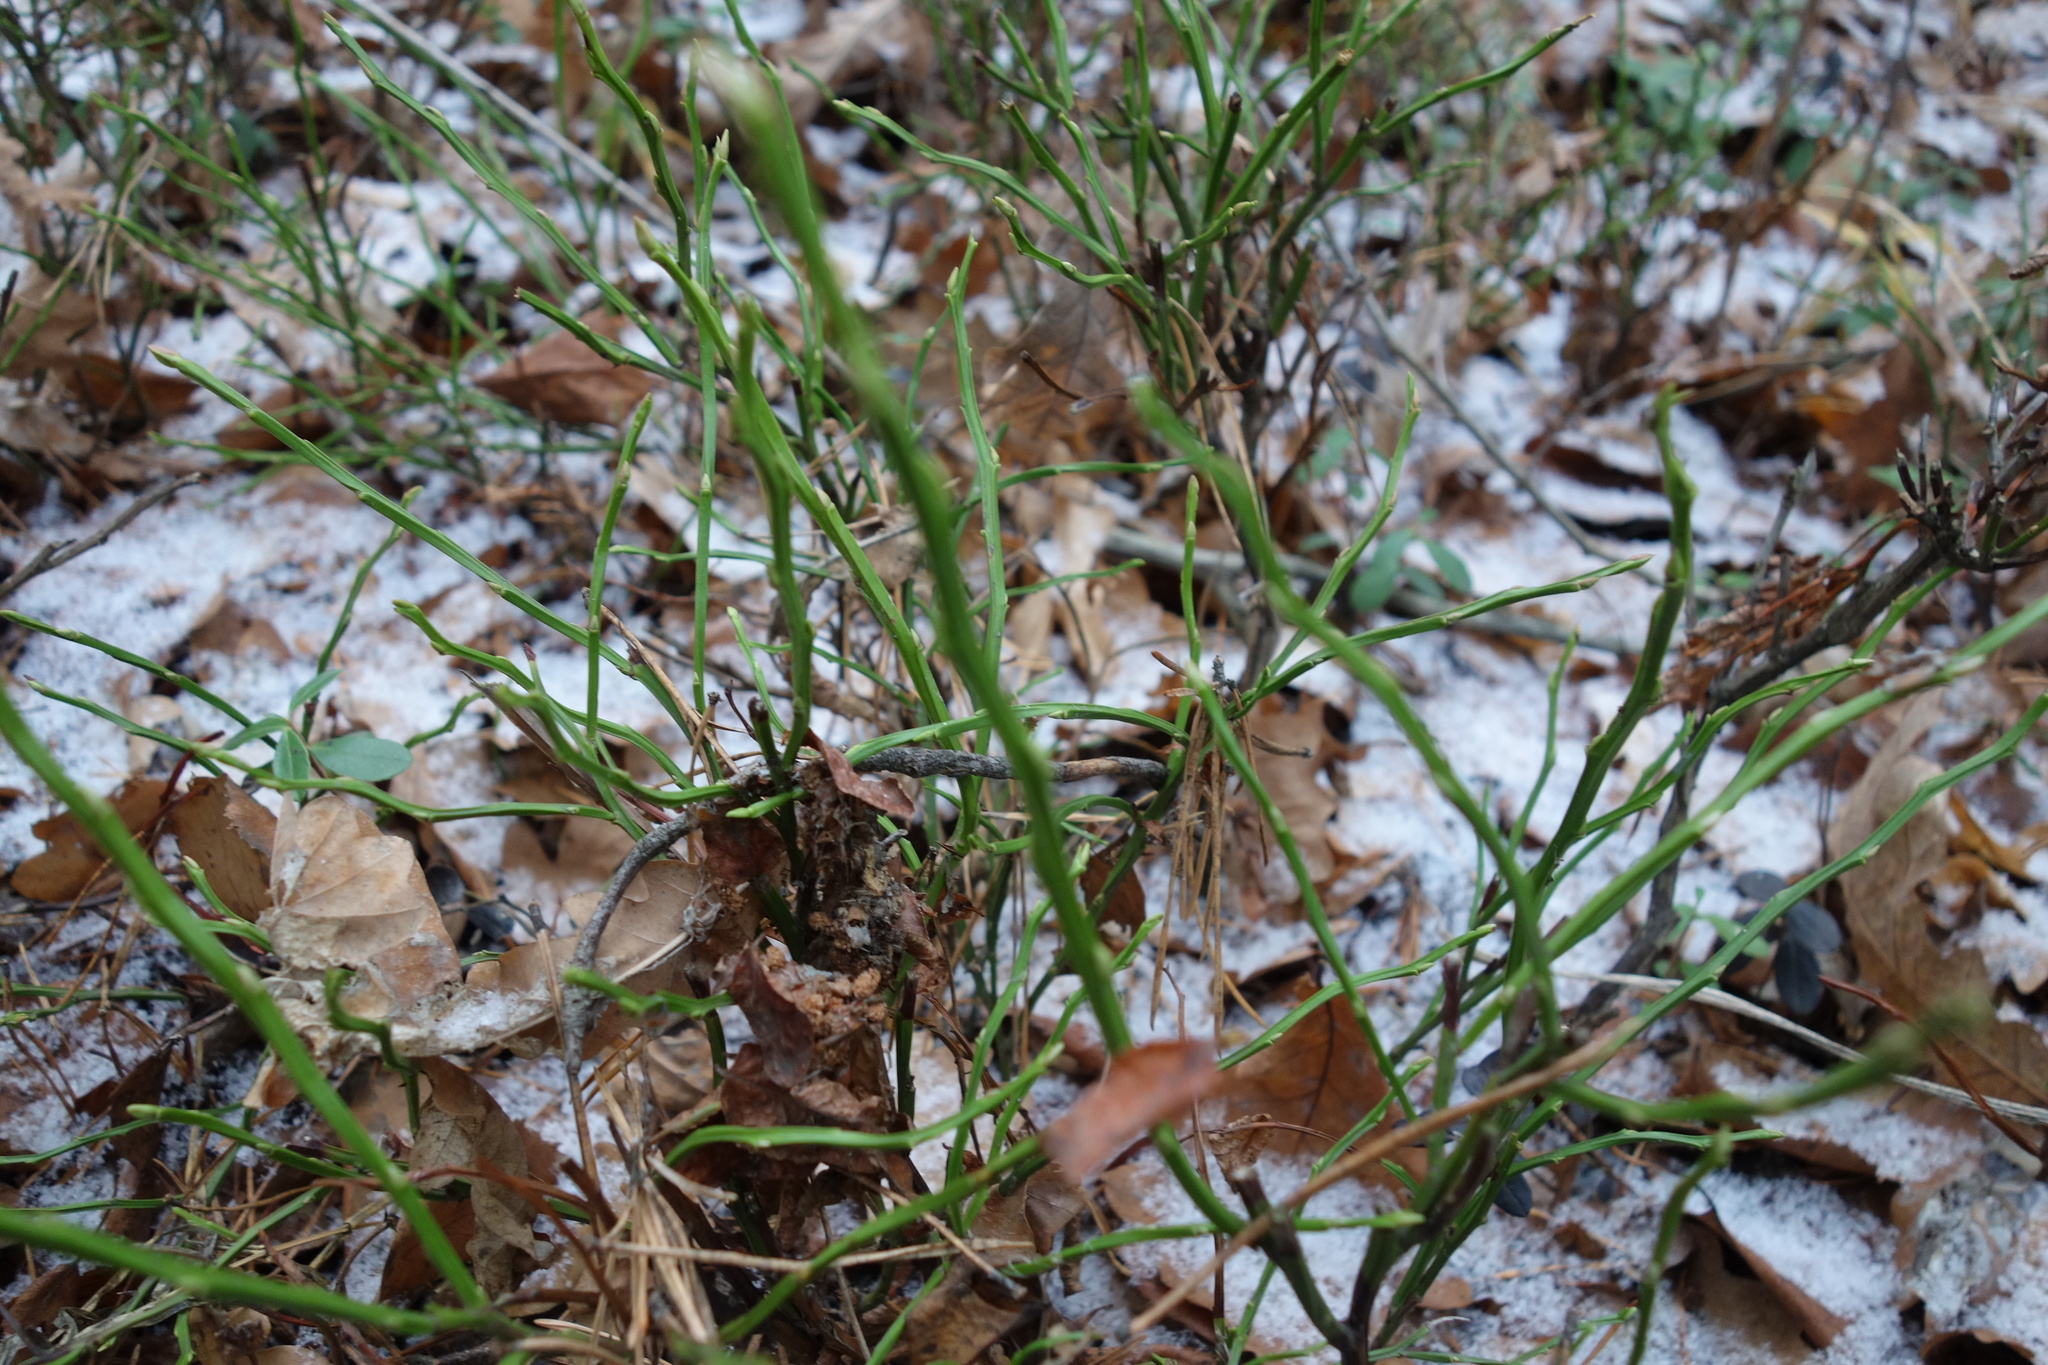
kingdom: Plantae
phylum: Tracheophyta
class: Magnoliopsida
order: Ericales
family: Ericaceae
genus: Vaccinium
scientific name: Vaccinium myrtillus
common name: Bilberry
